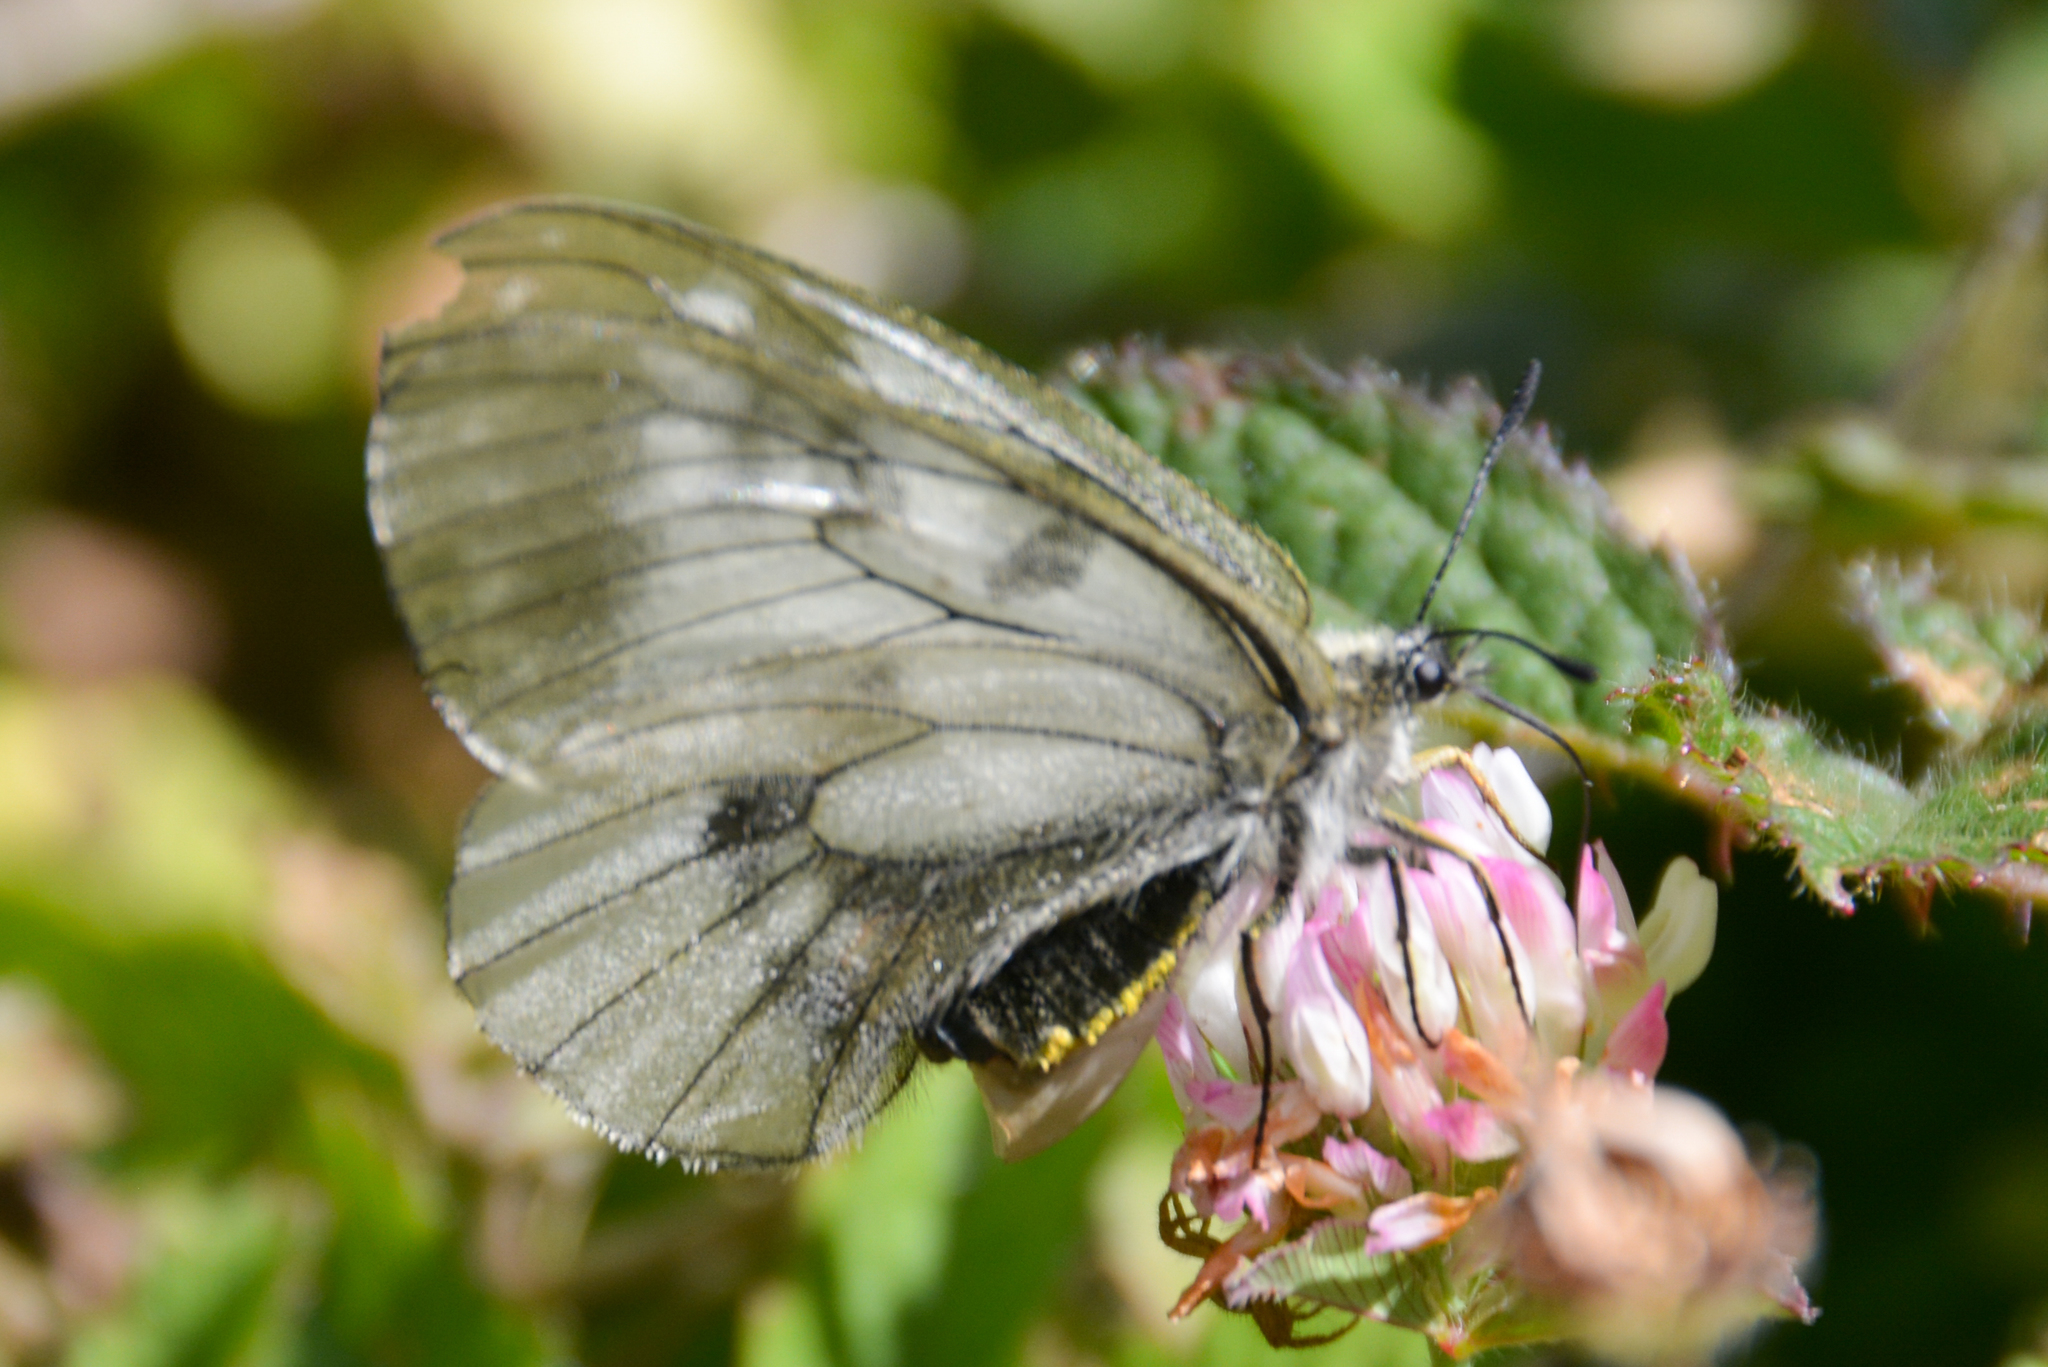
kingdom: Animalia
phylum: Arthropoda
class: Insecta
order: Lepidoptera
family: Papilionidae
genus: Parnassius
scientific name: Parnassius mnemosyne
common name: Clouded apollo
